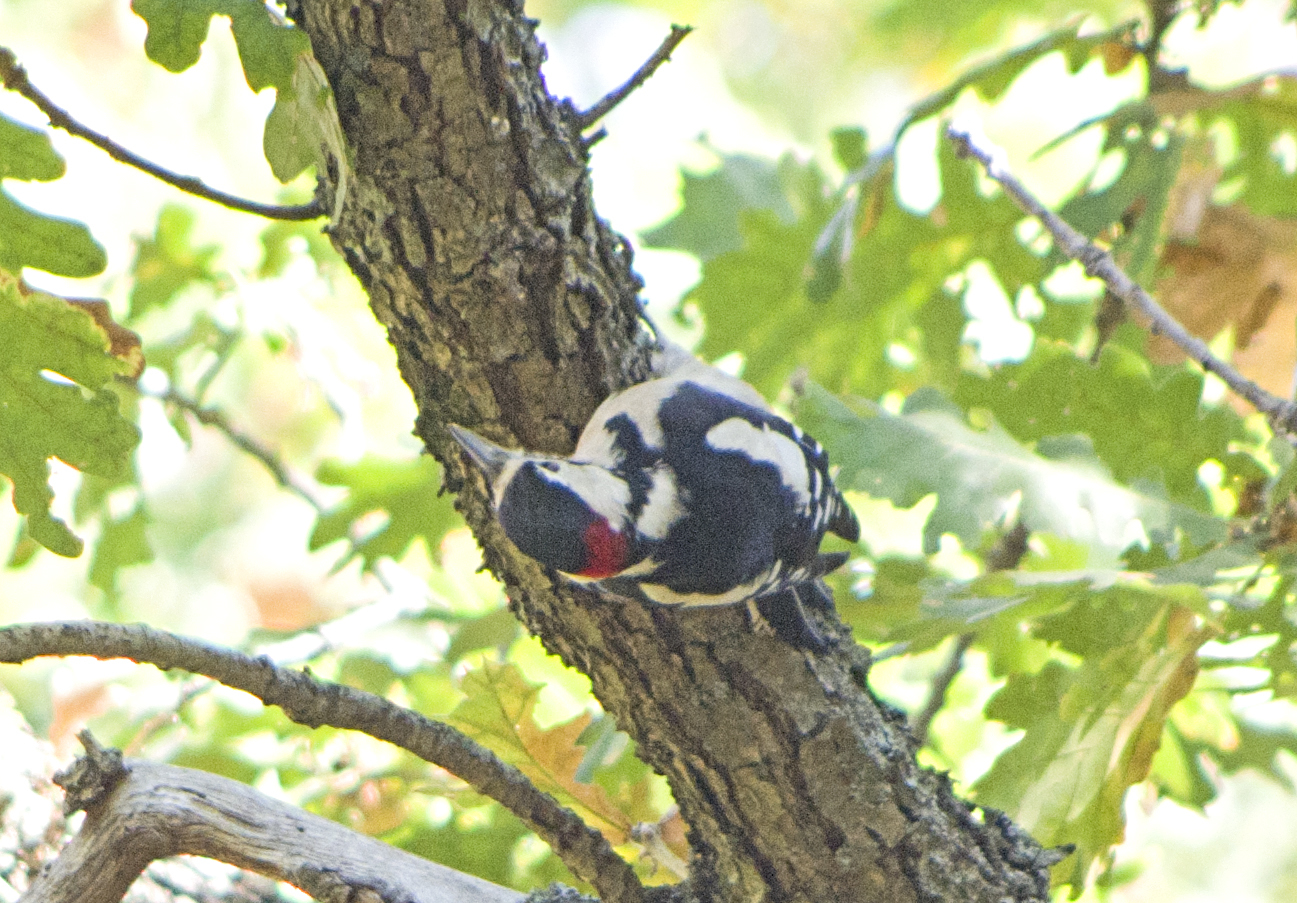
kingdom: Animalia
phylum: Chordata
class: Aves
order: Piciformes
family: Picidae
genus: Dendrocopos
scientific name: Dendrocopos major
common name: Great spotted woodpecker
